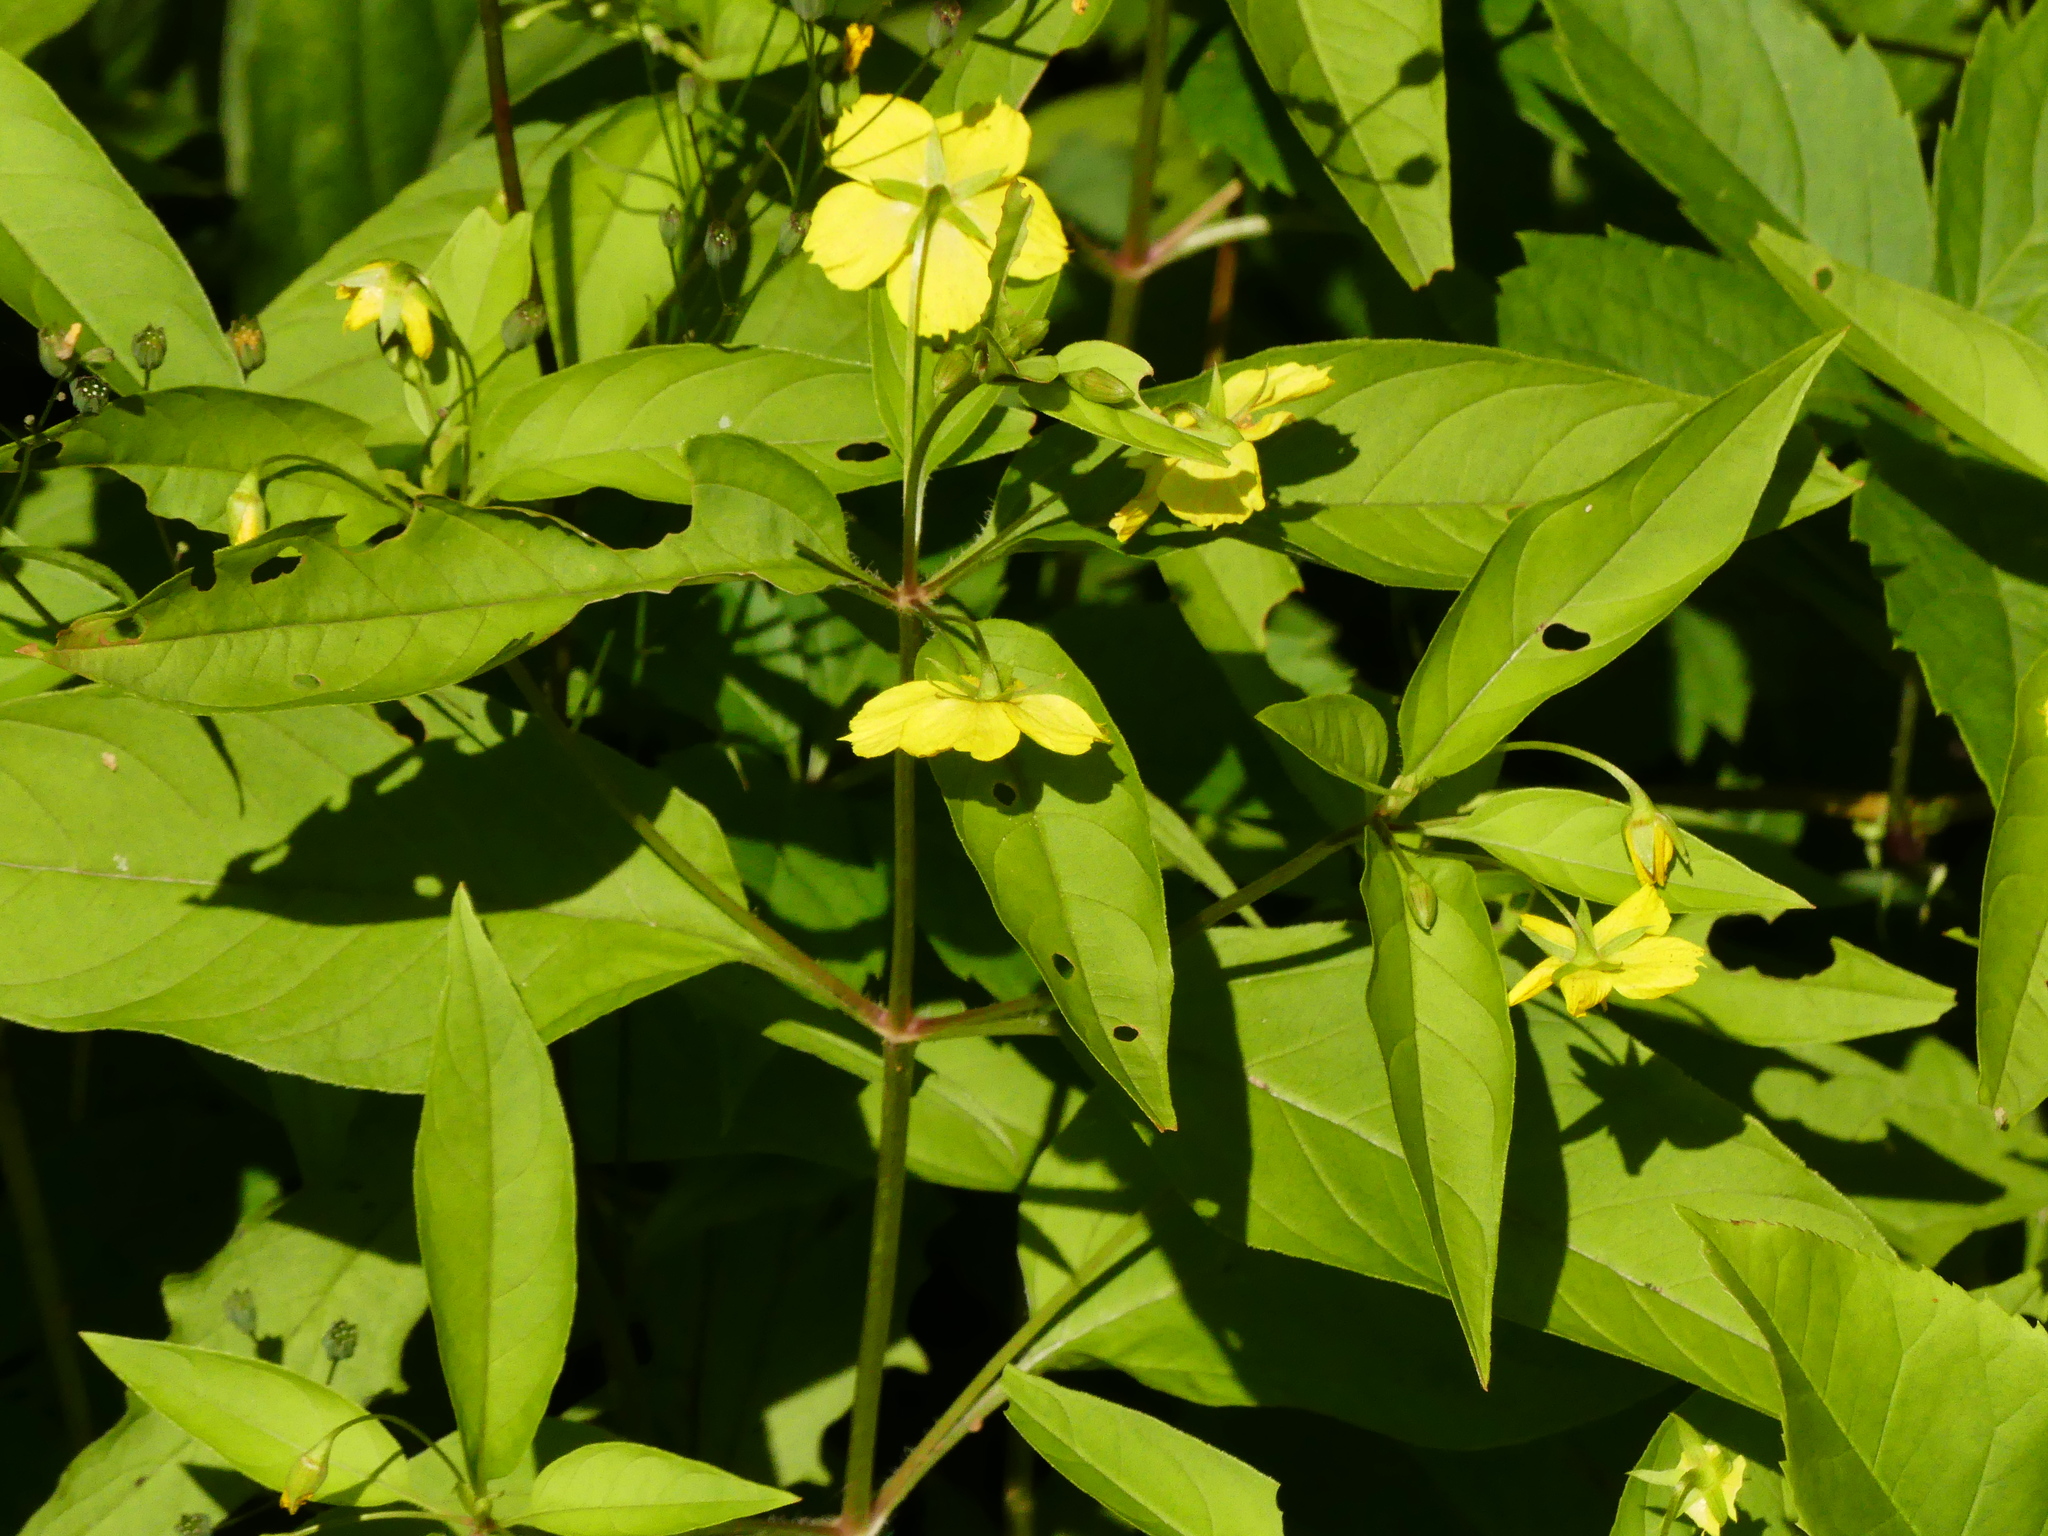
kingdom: Plantae
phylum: Tracheophyta
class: Magnoliopsida
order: Ericales
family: Primulaceae
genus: Lysimachia
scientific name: Lysimachia ciliata
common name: Fringed loosestrife
